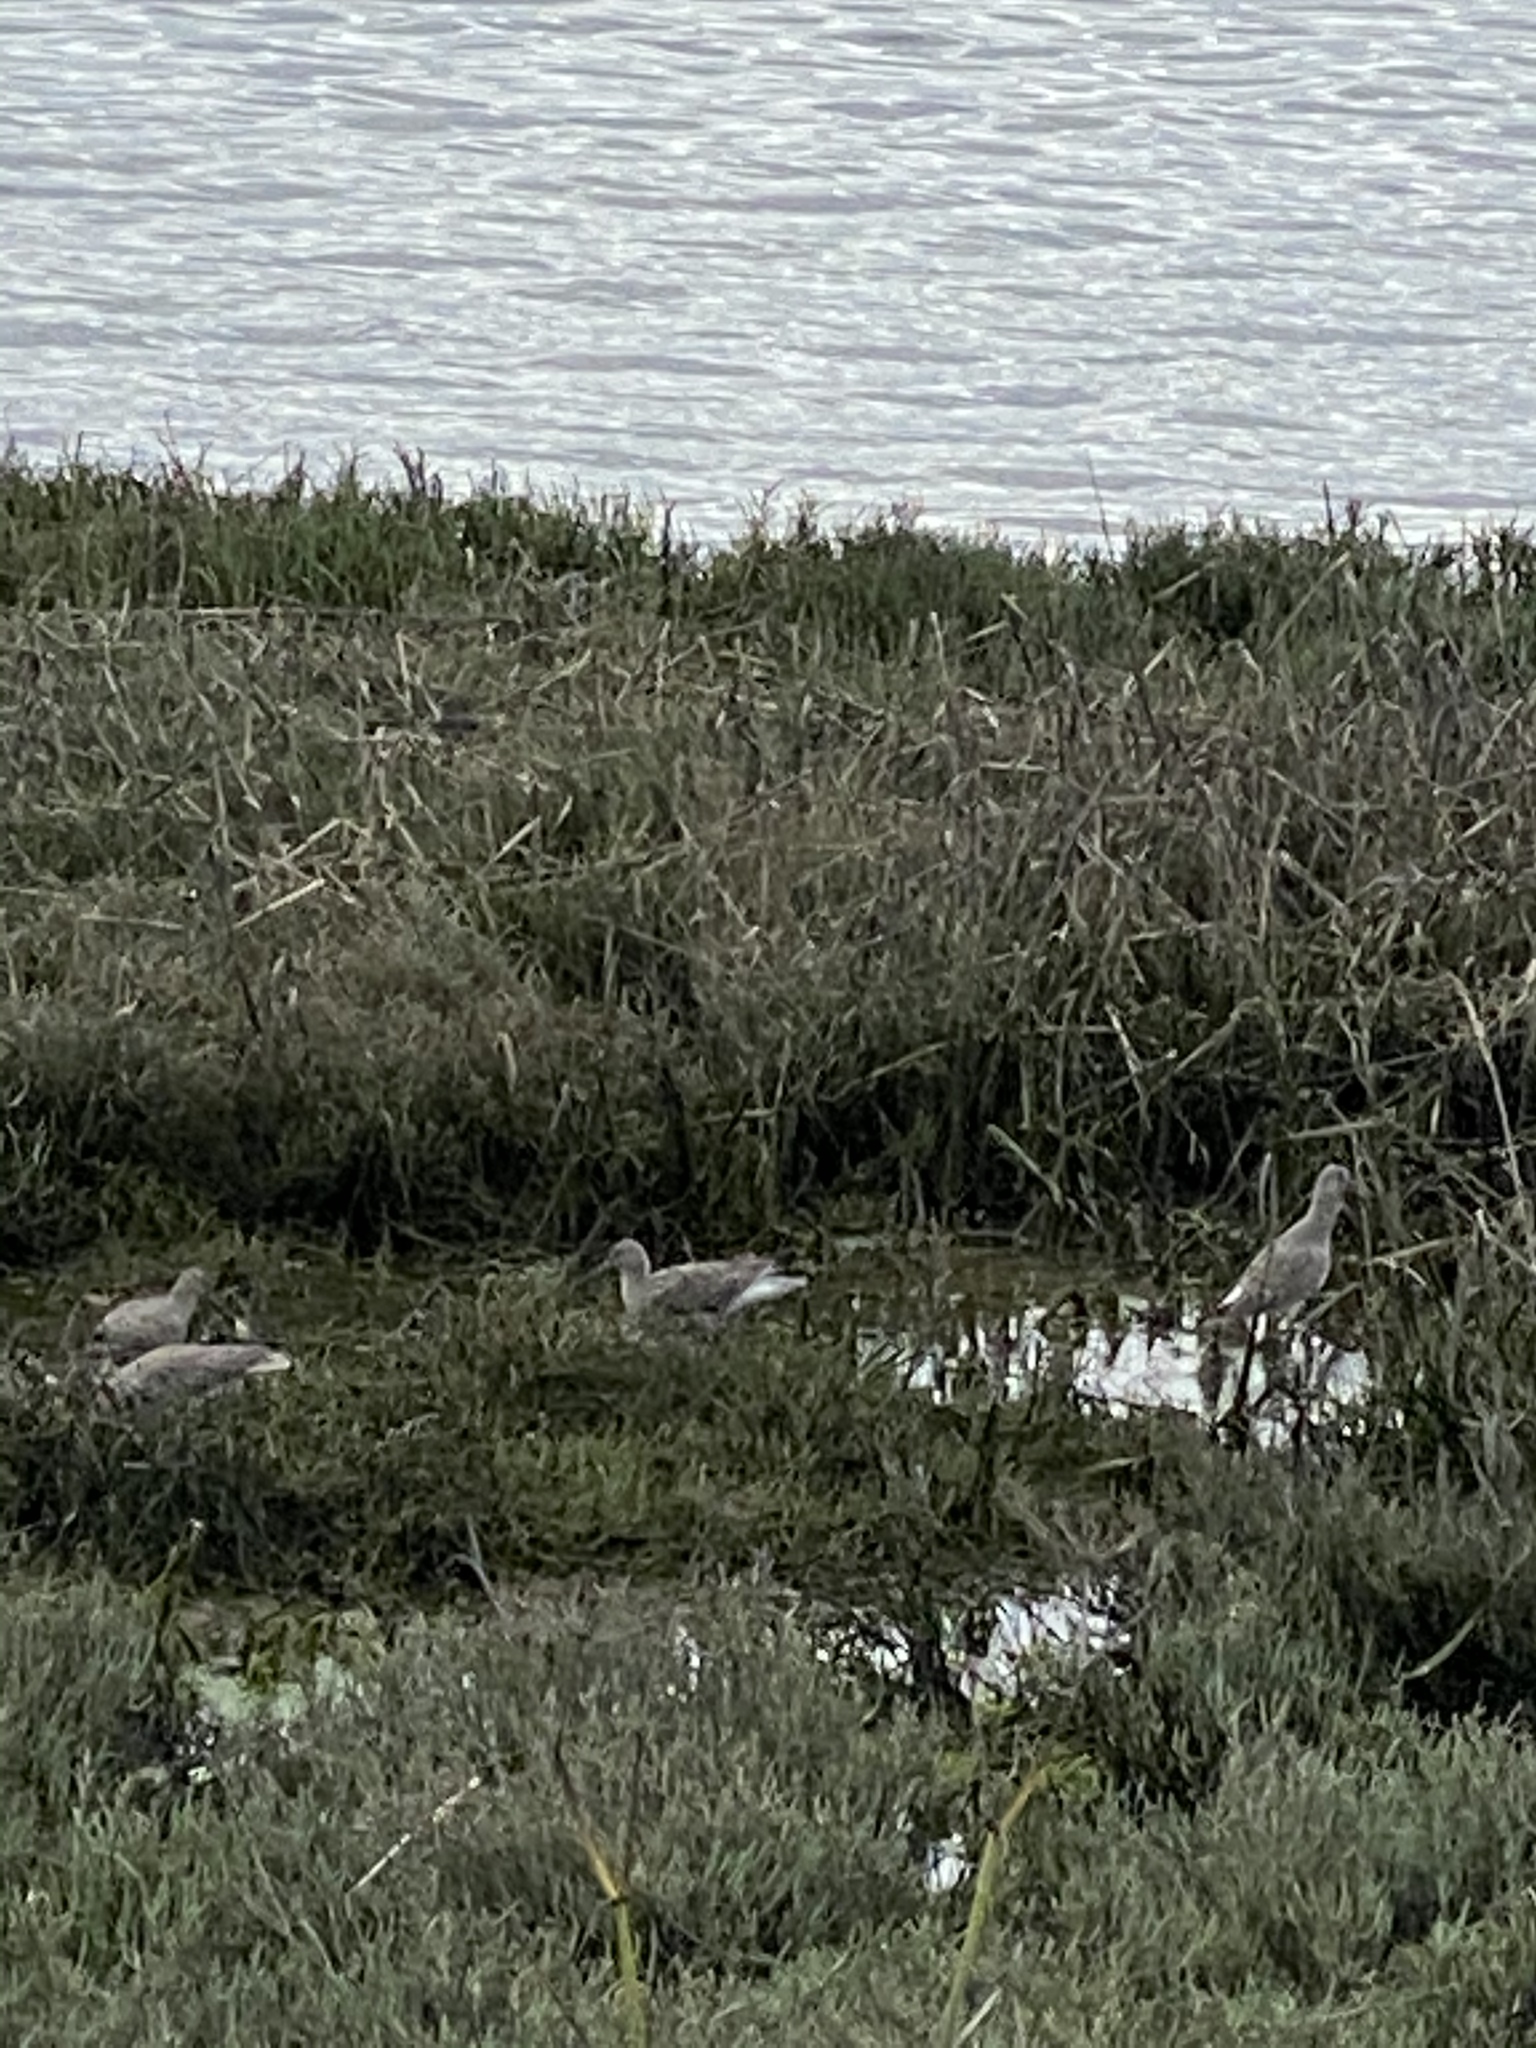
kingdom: Animalia
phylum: Chordata
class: Aves
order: Charadriiformes
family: Scolopacidae
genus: Tringa
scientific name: Tringa semipalmata
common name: Willet
